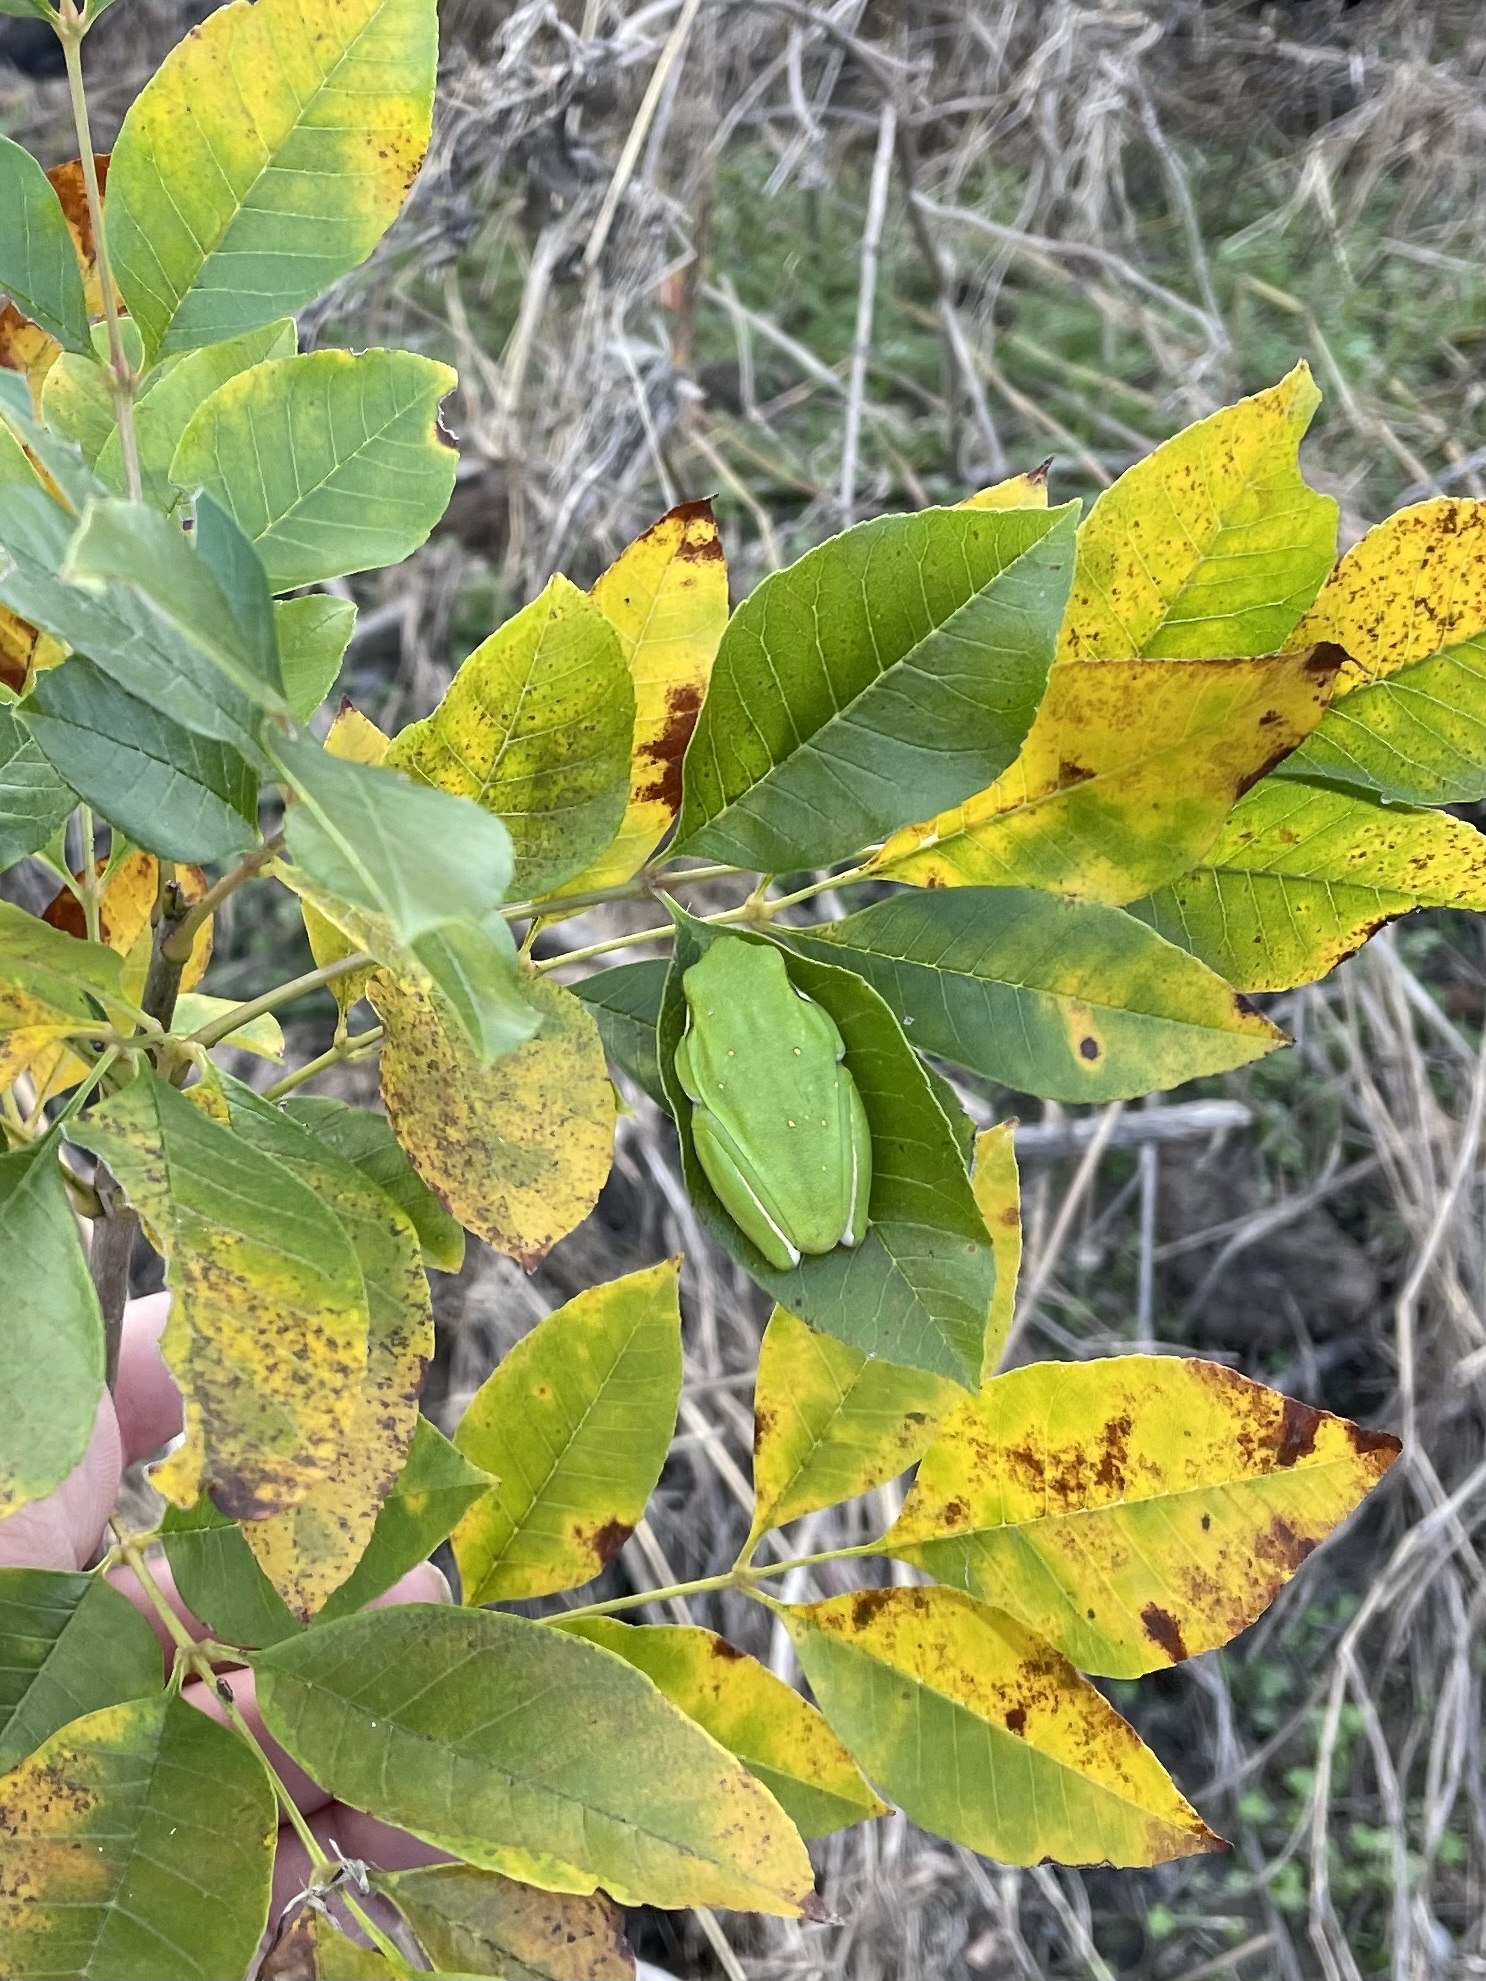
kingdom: Animalia
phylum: Chordata
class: Amphibia
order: Anura
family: Hylidae
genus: Dryophytes
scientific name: Dryophytes cinereus
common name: Green treefrog
